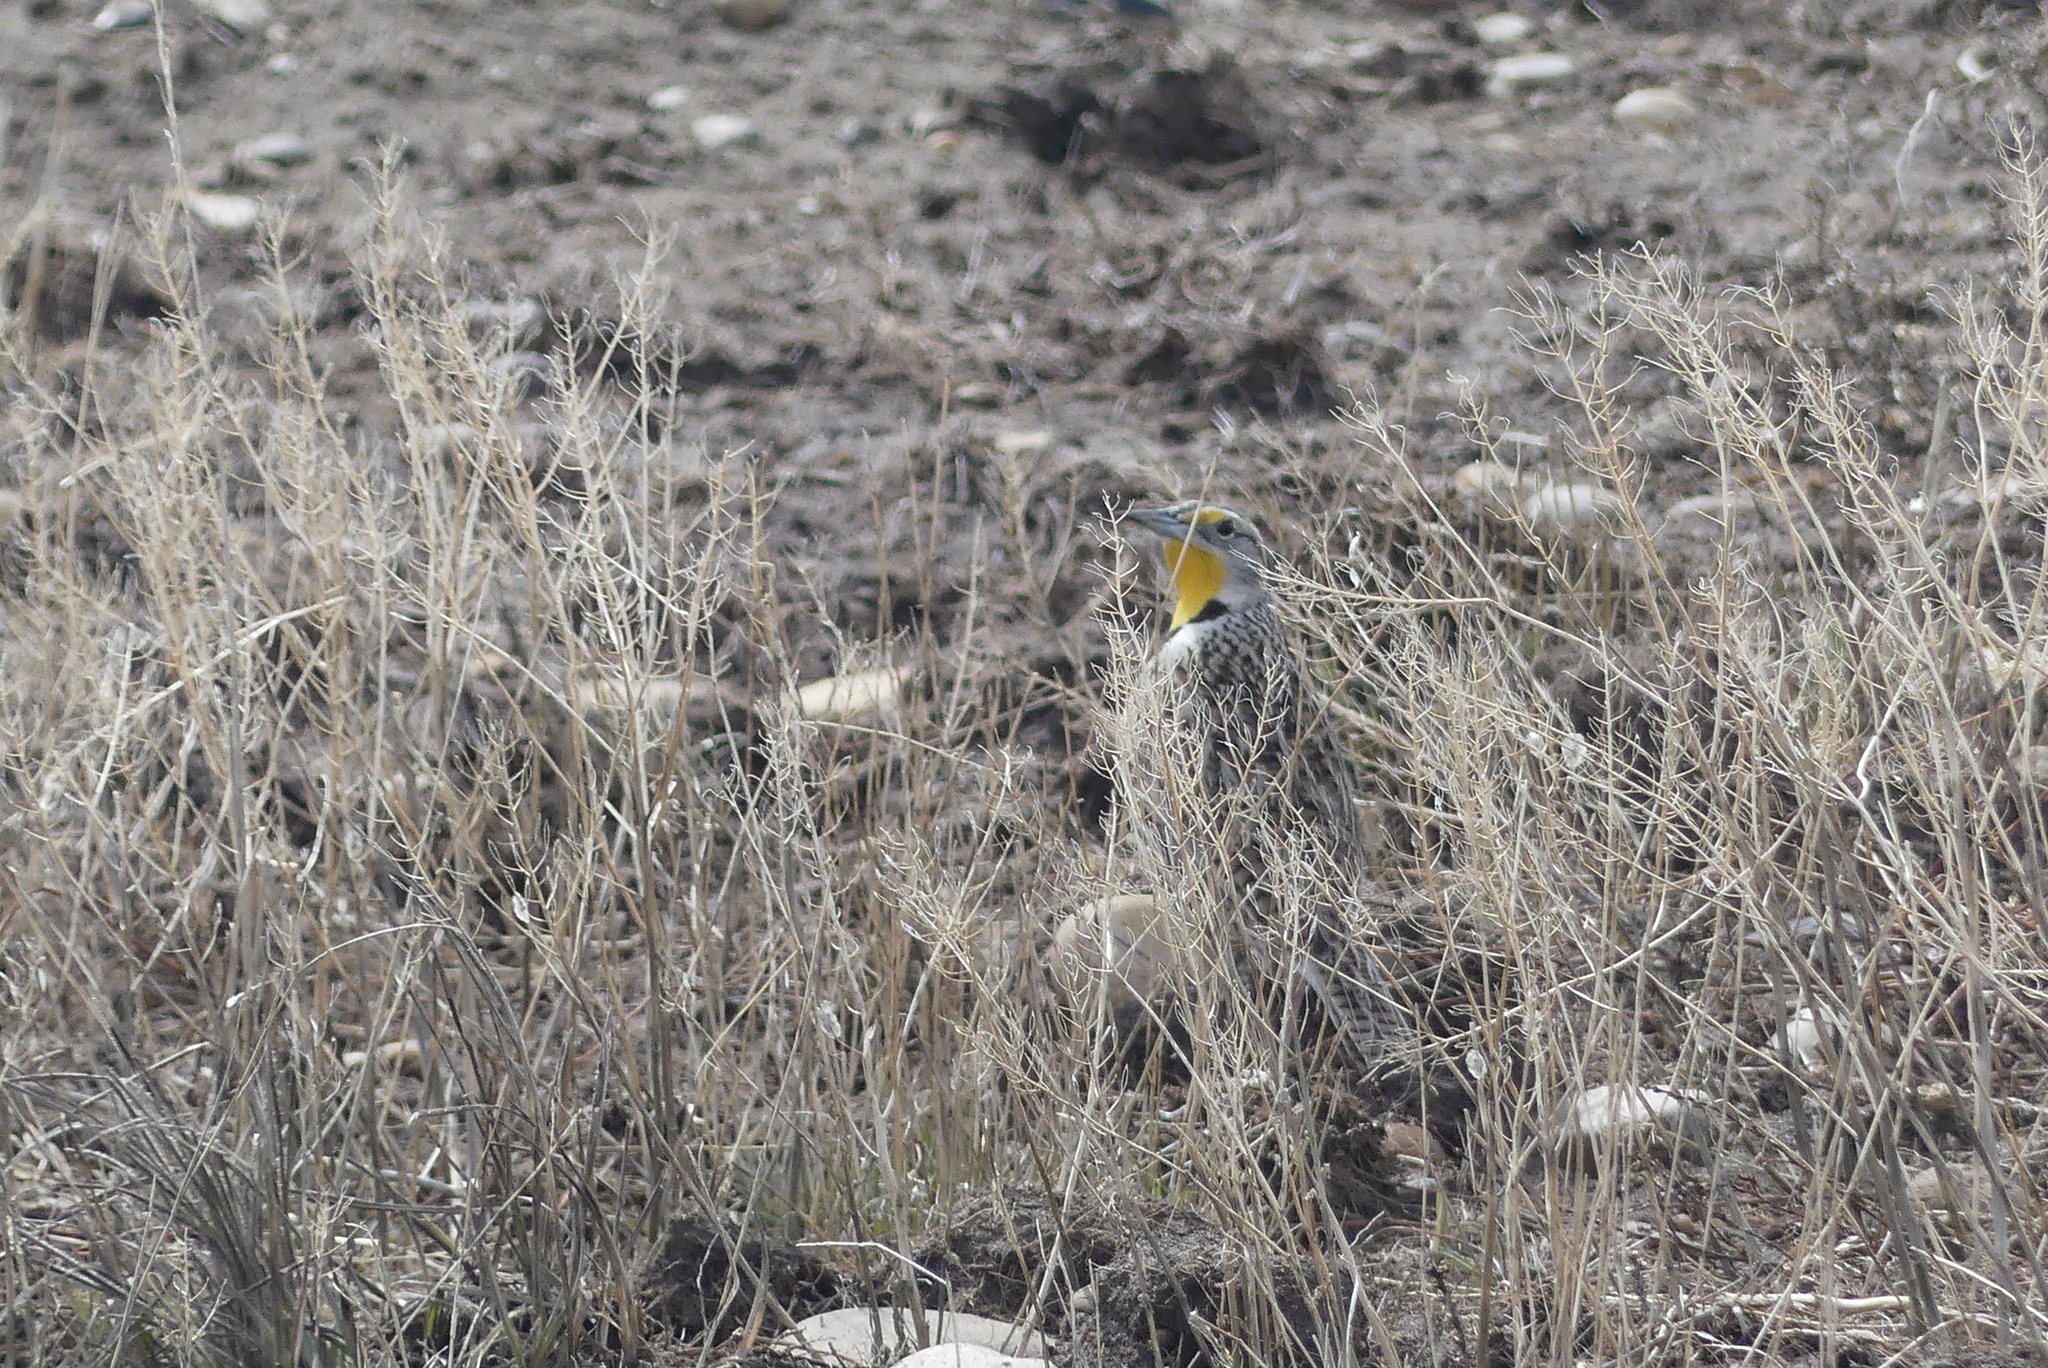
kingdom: Animalia
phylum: Chordata
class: Aves
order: Passeriformes
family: Icteridae
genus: Sturnella
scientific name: Sturnella neglecta
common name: Western meadowlark
